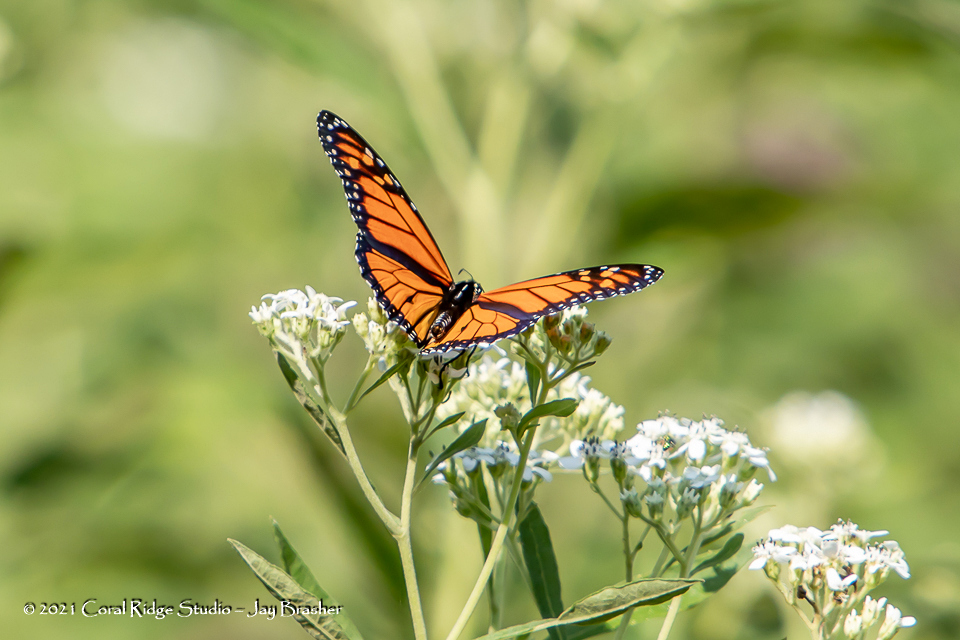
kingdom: Animalia
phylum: Arthropoda
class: Insecta
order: Lepidoptera
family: Nymphalidae
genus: Danaus
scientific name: Danaus plexippus
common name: Monarch
